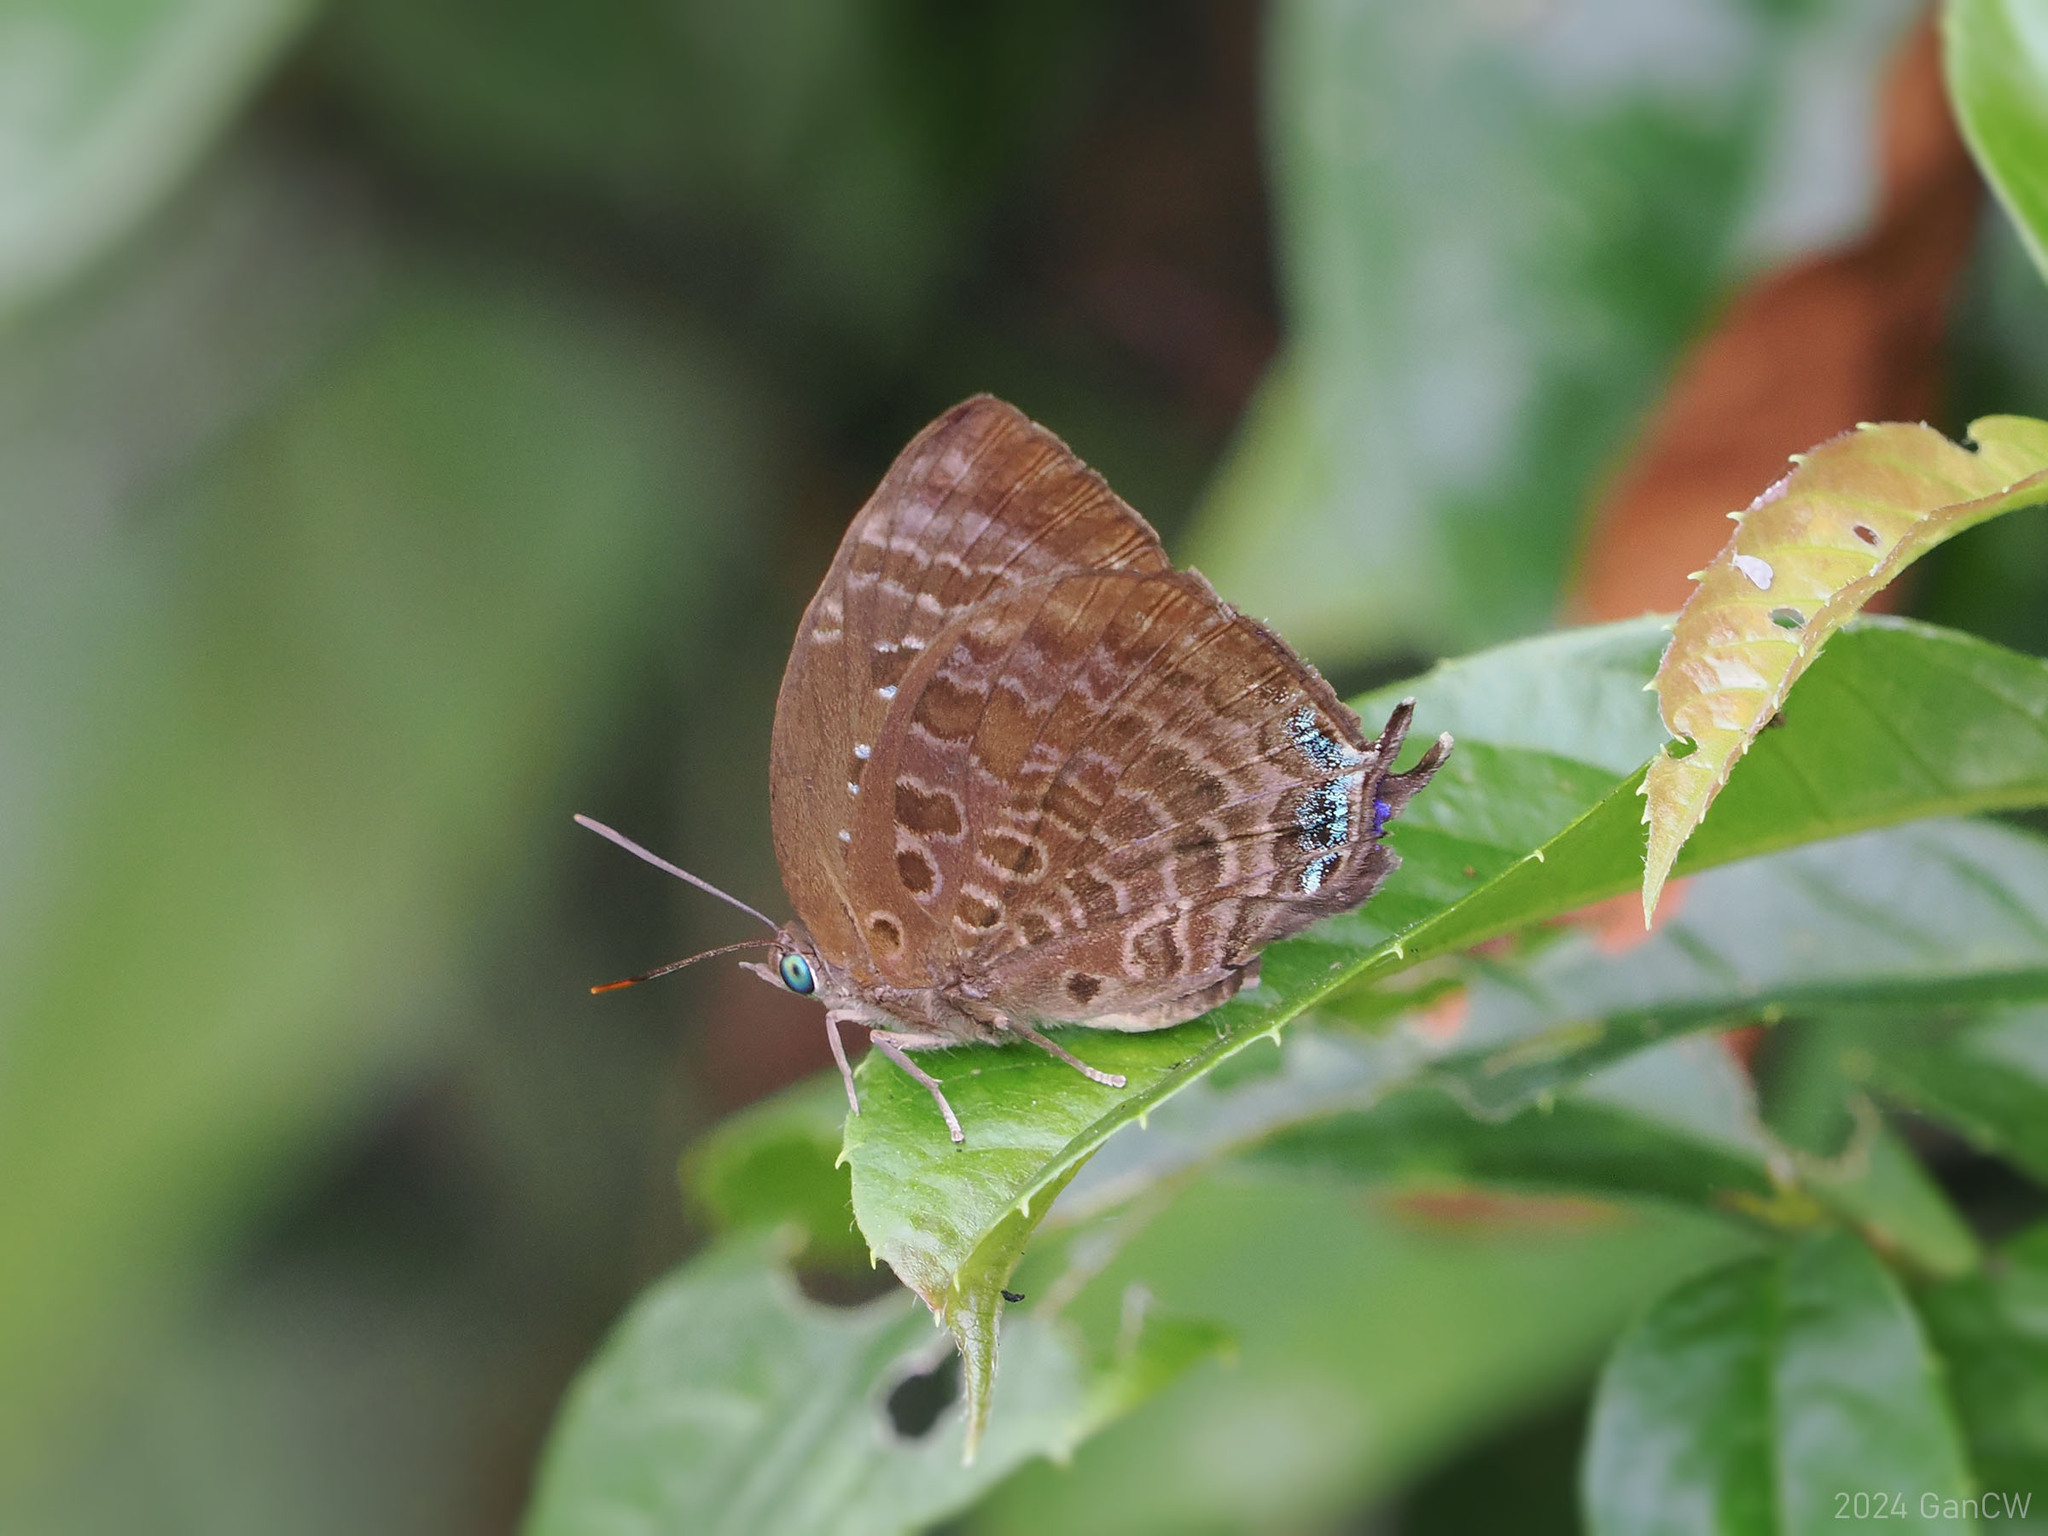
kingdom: Animalia
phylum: Arthropoda
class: Insecta
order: Lepidoptera
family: Lycaenidae
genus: Arhopala
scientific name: Arhopala centaurus
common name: Dull oak-blue
